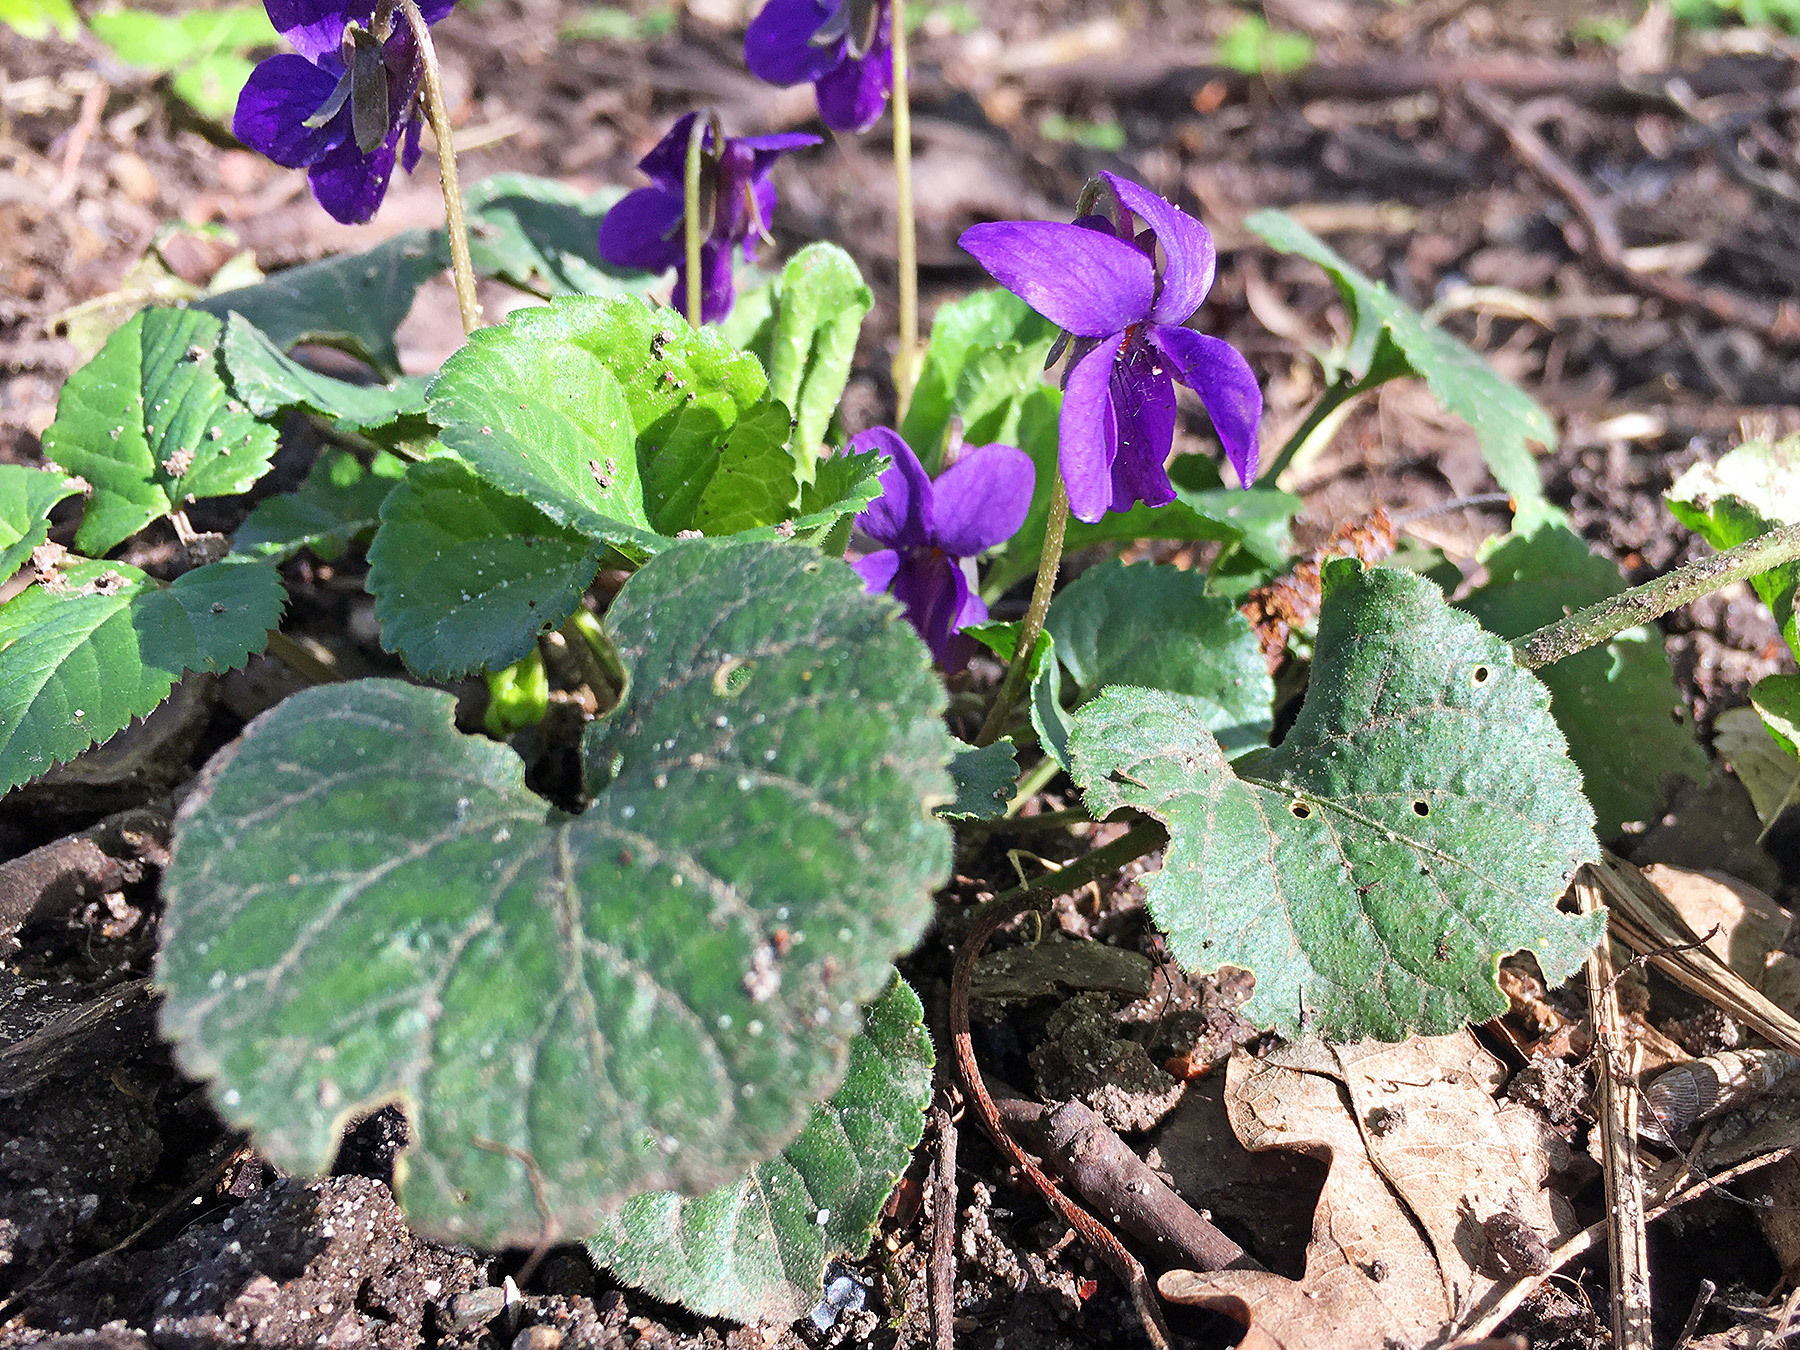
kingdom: Plantae
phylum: Tracheophyta
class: Magnoliopsida
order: Malpighiales
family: Violaceae
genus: Viola
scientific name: Viola odorata
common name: Sweet violet
